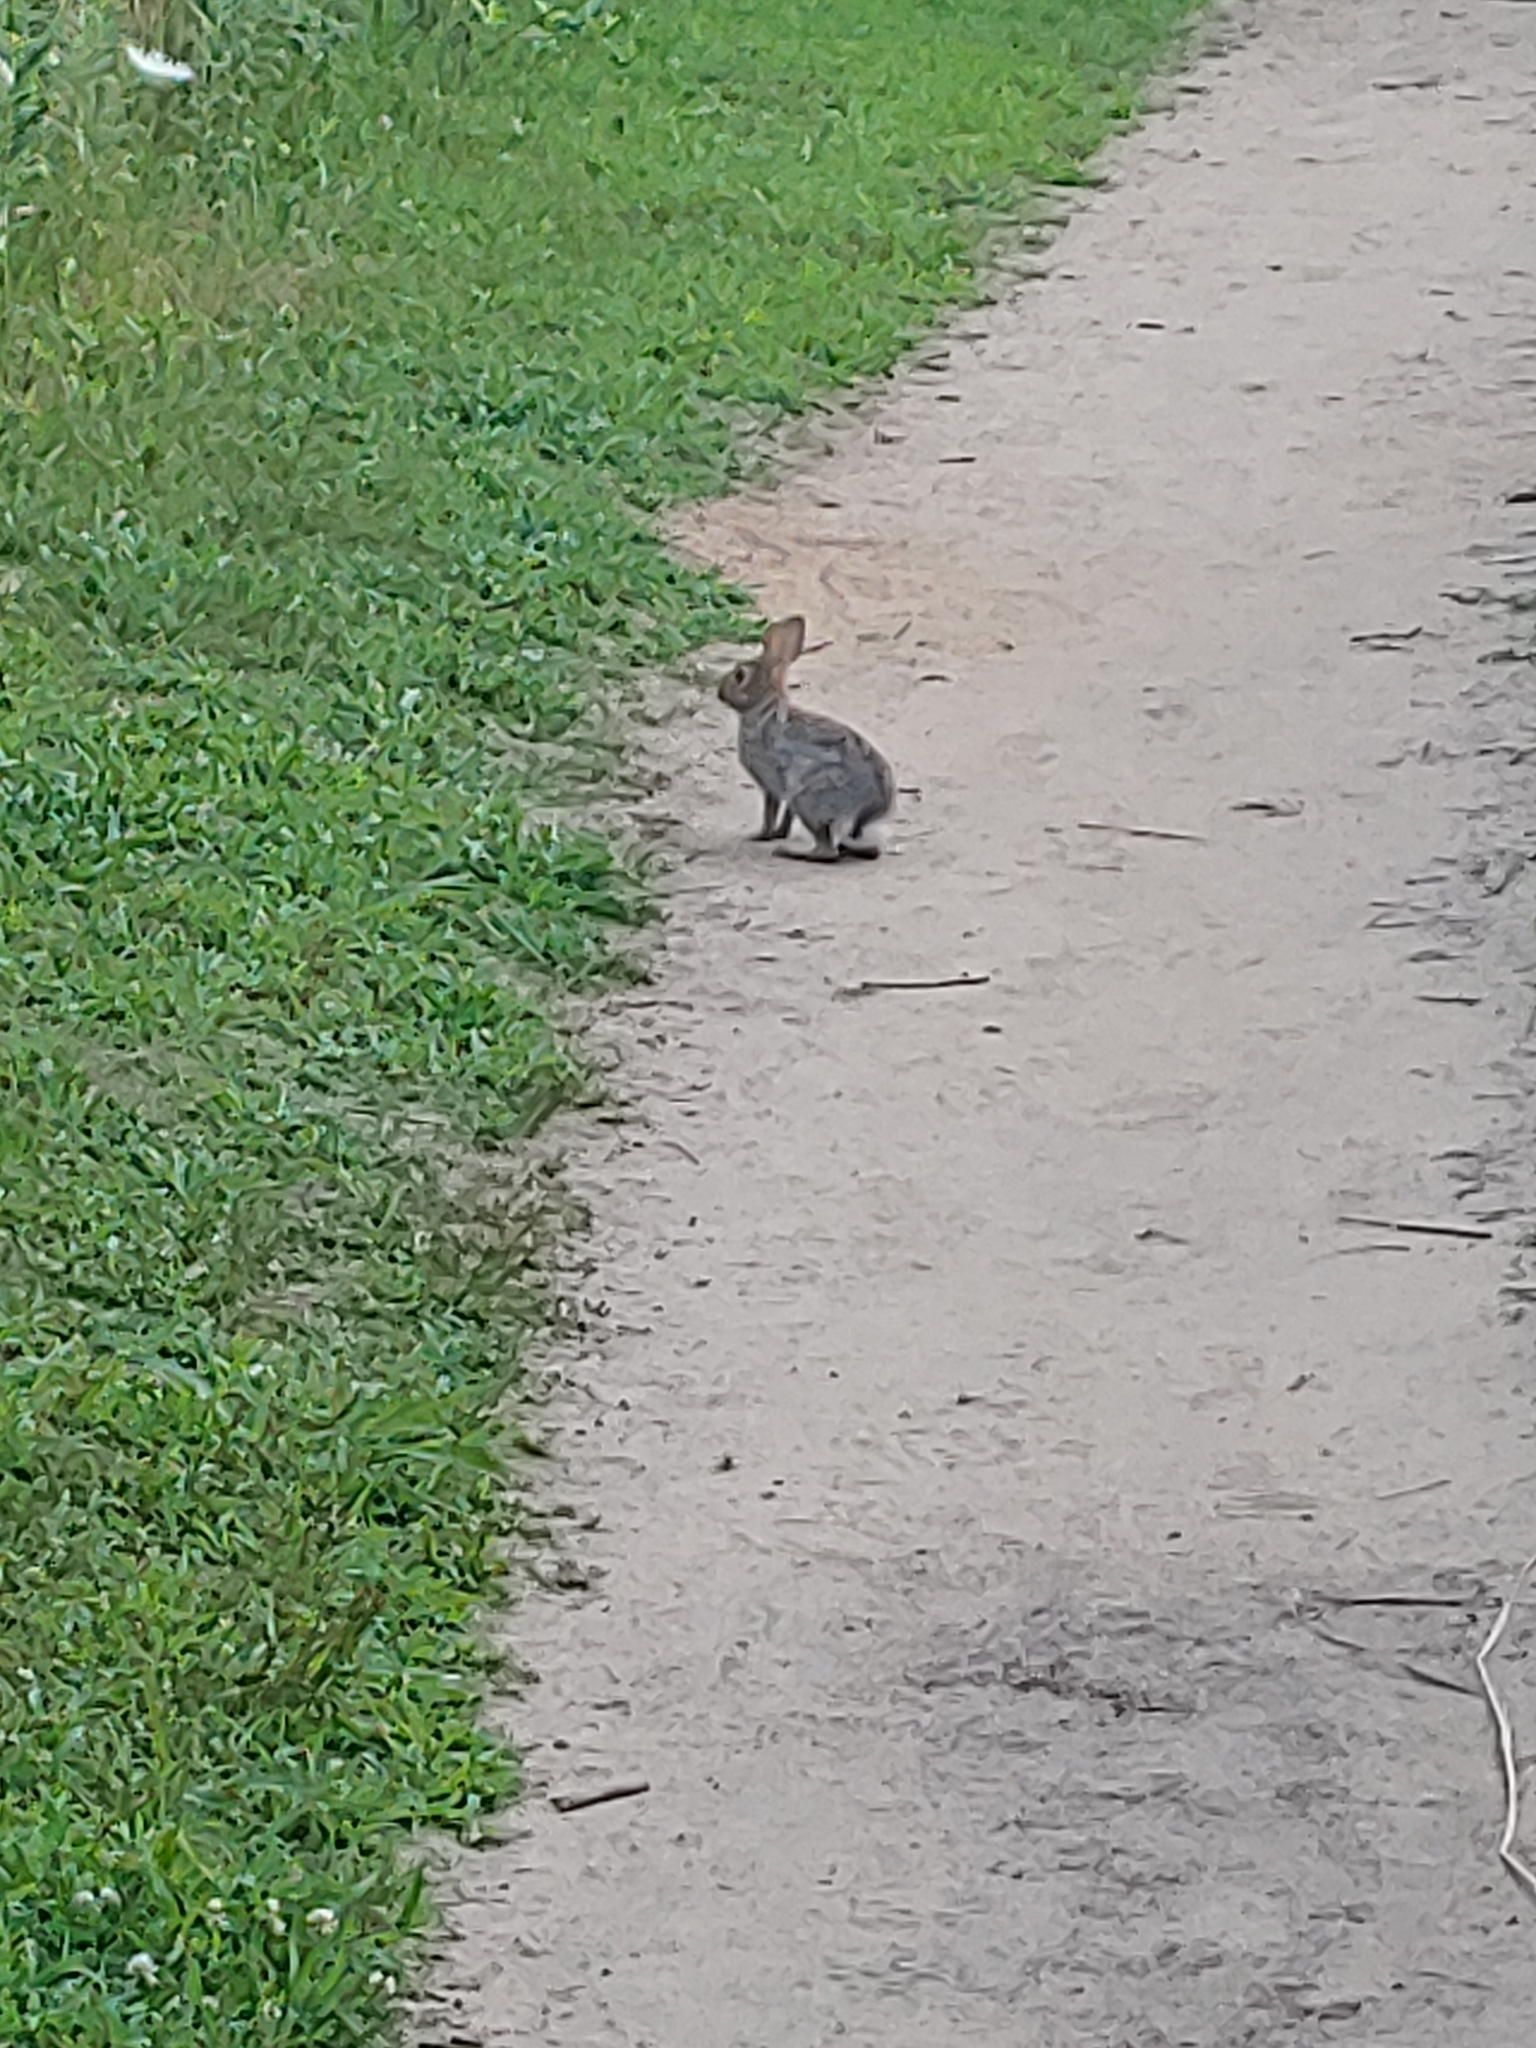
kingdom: Animalia
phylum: Chordata
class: Mammalia
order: Lagomorpha
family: Leporidae
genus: Sylvilagus
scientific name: Sylvilagus floridanus
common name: Eastern cottontail
